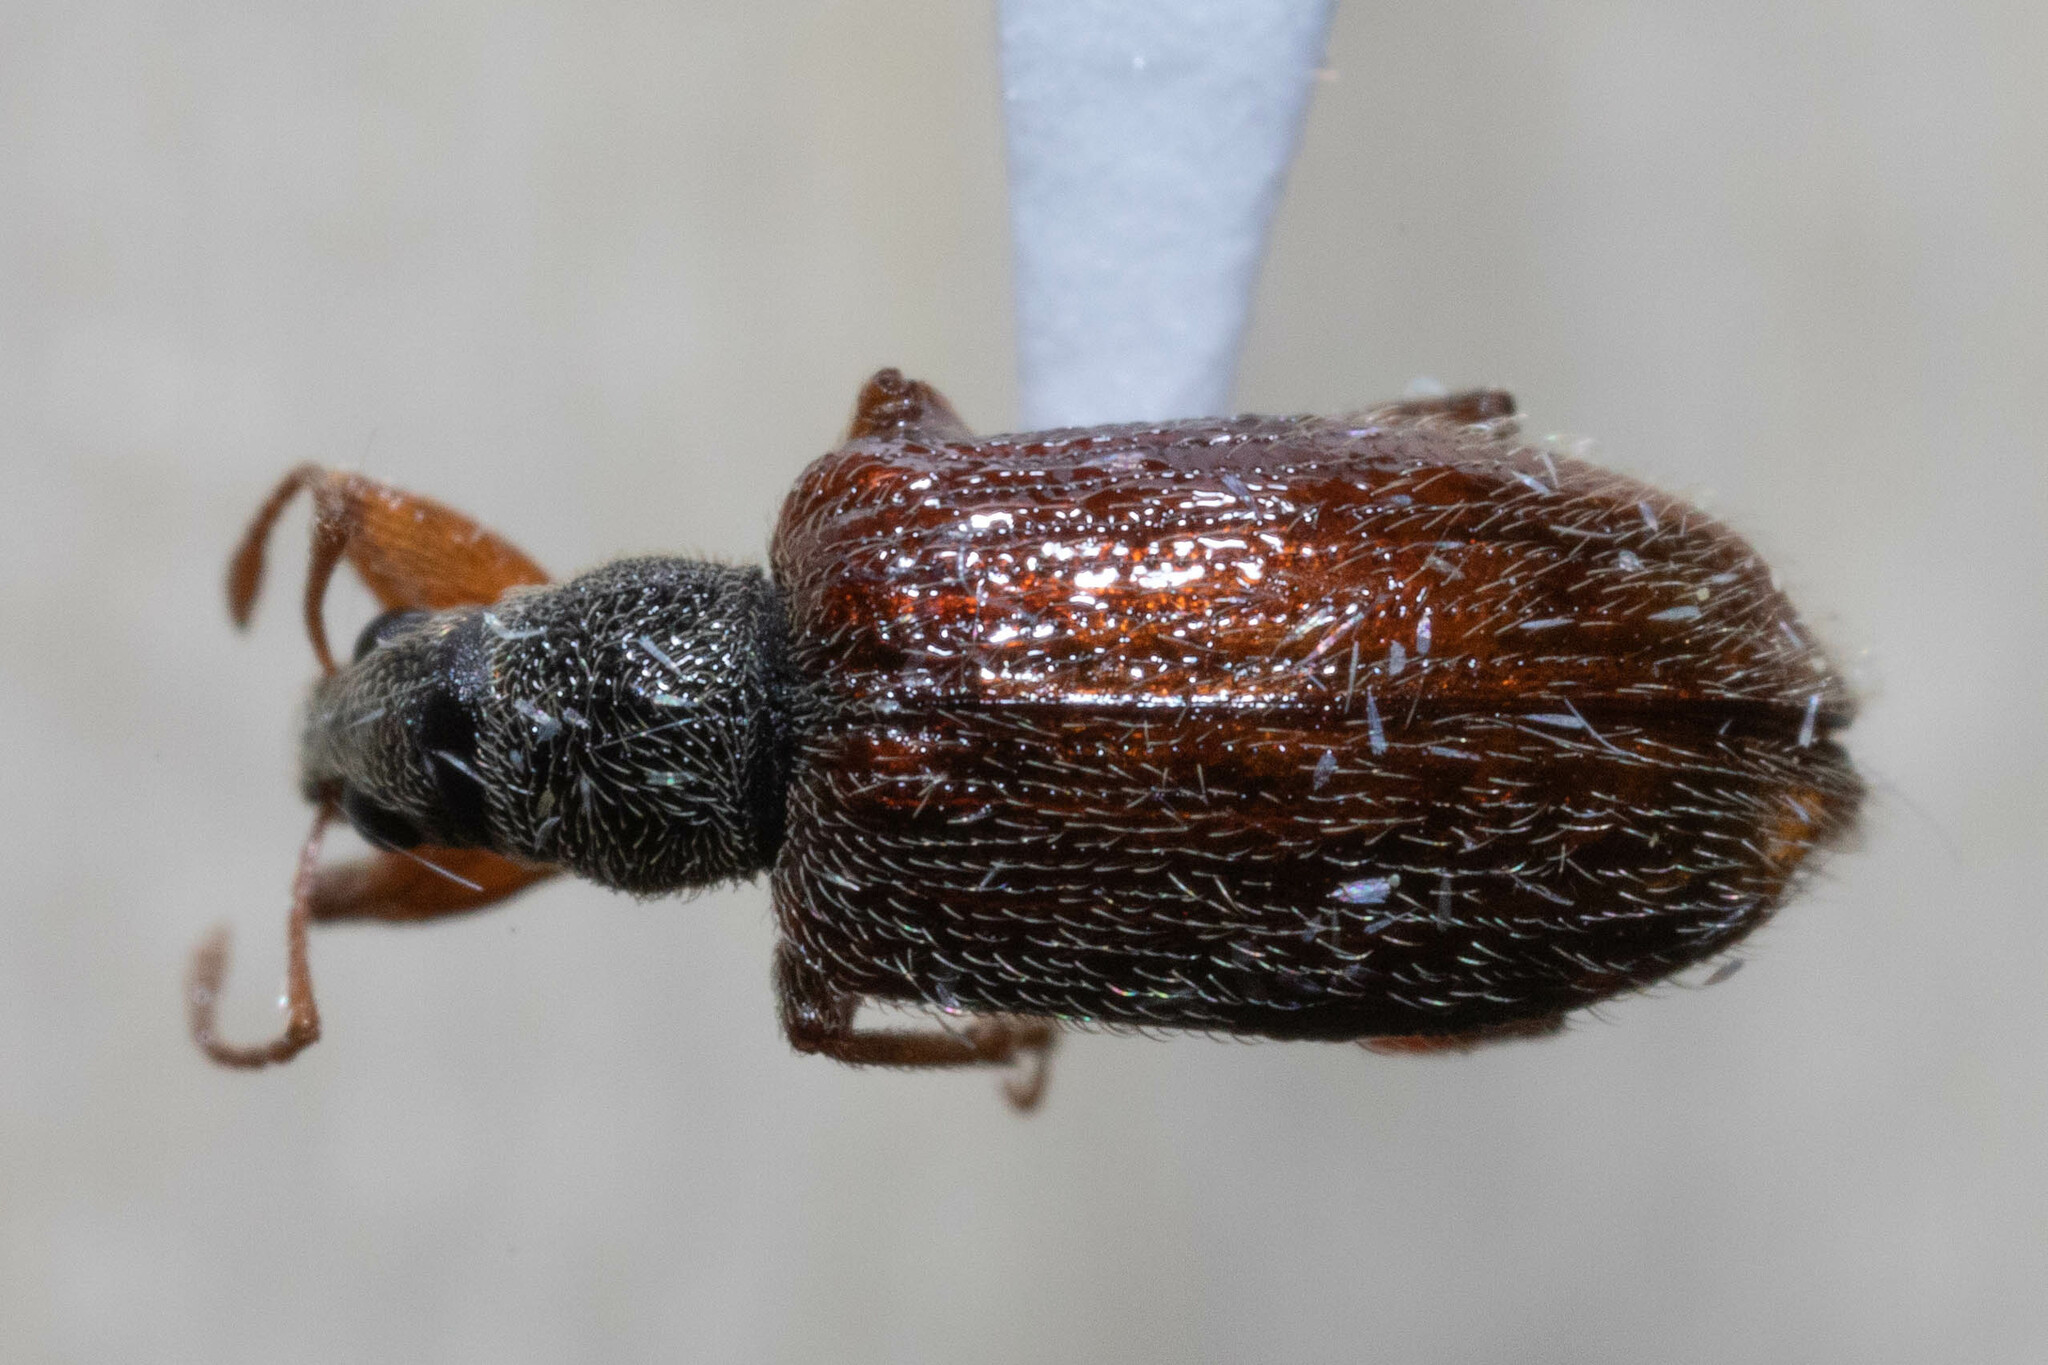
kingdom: Animalia
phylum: Arthropoda
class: Insecta
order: Coleoptera
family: Curculionidae
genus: Phyllobius
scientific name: Phyllobius oblongus
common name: Brown leaf weevil
